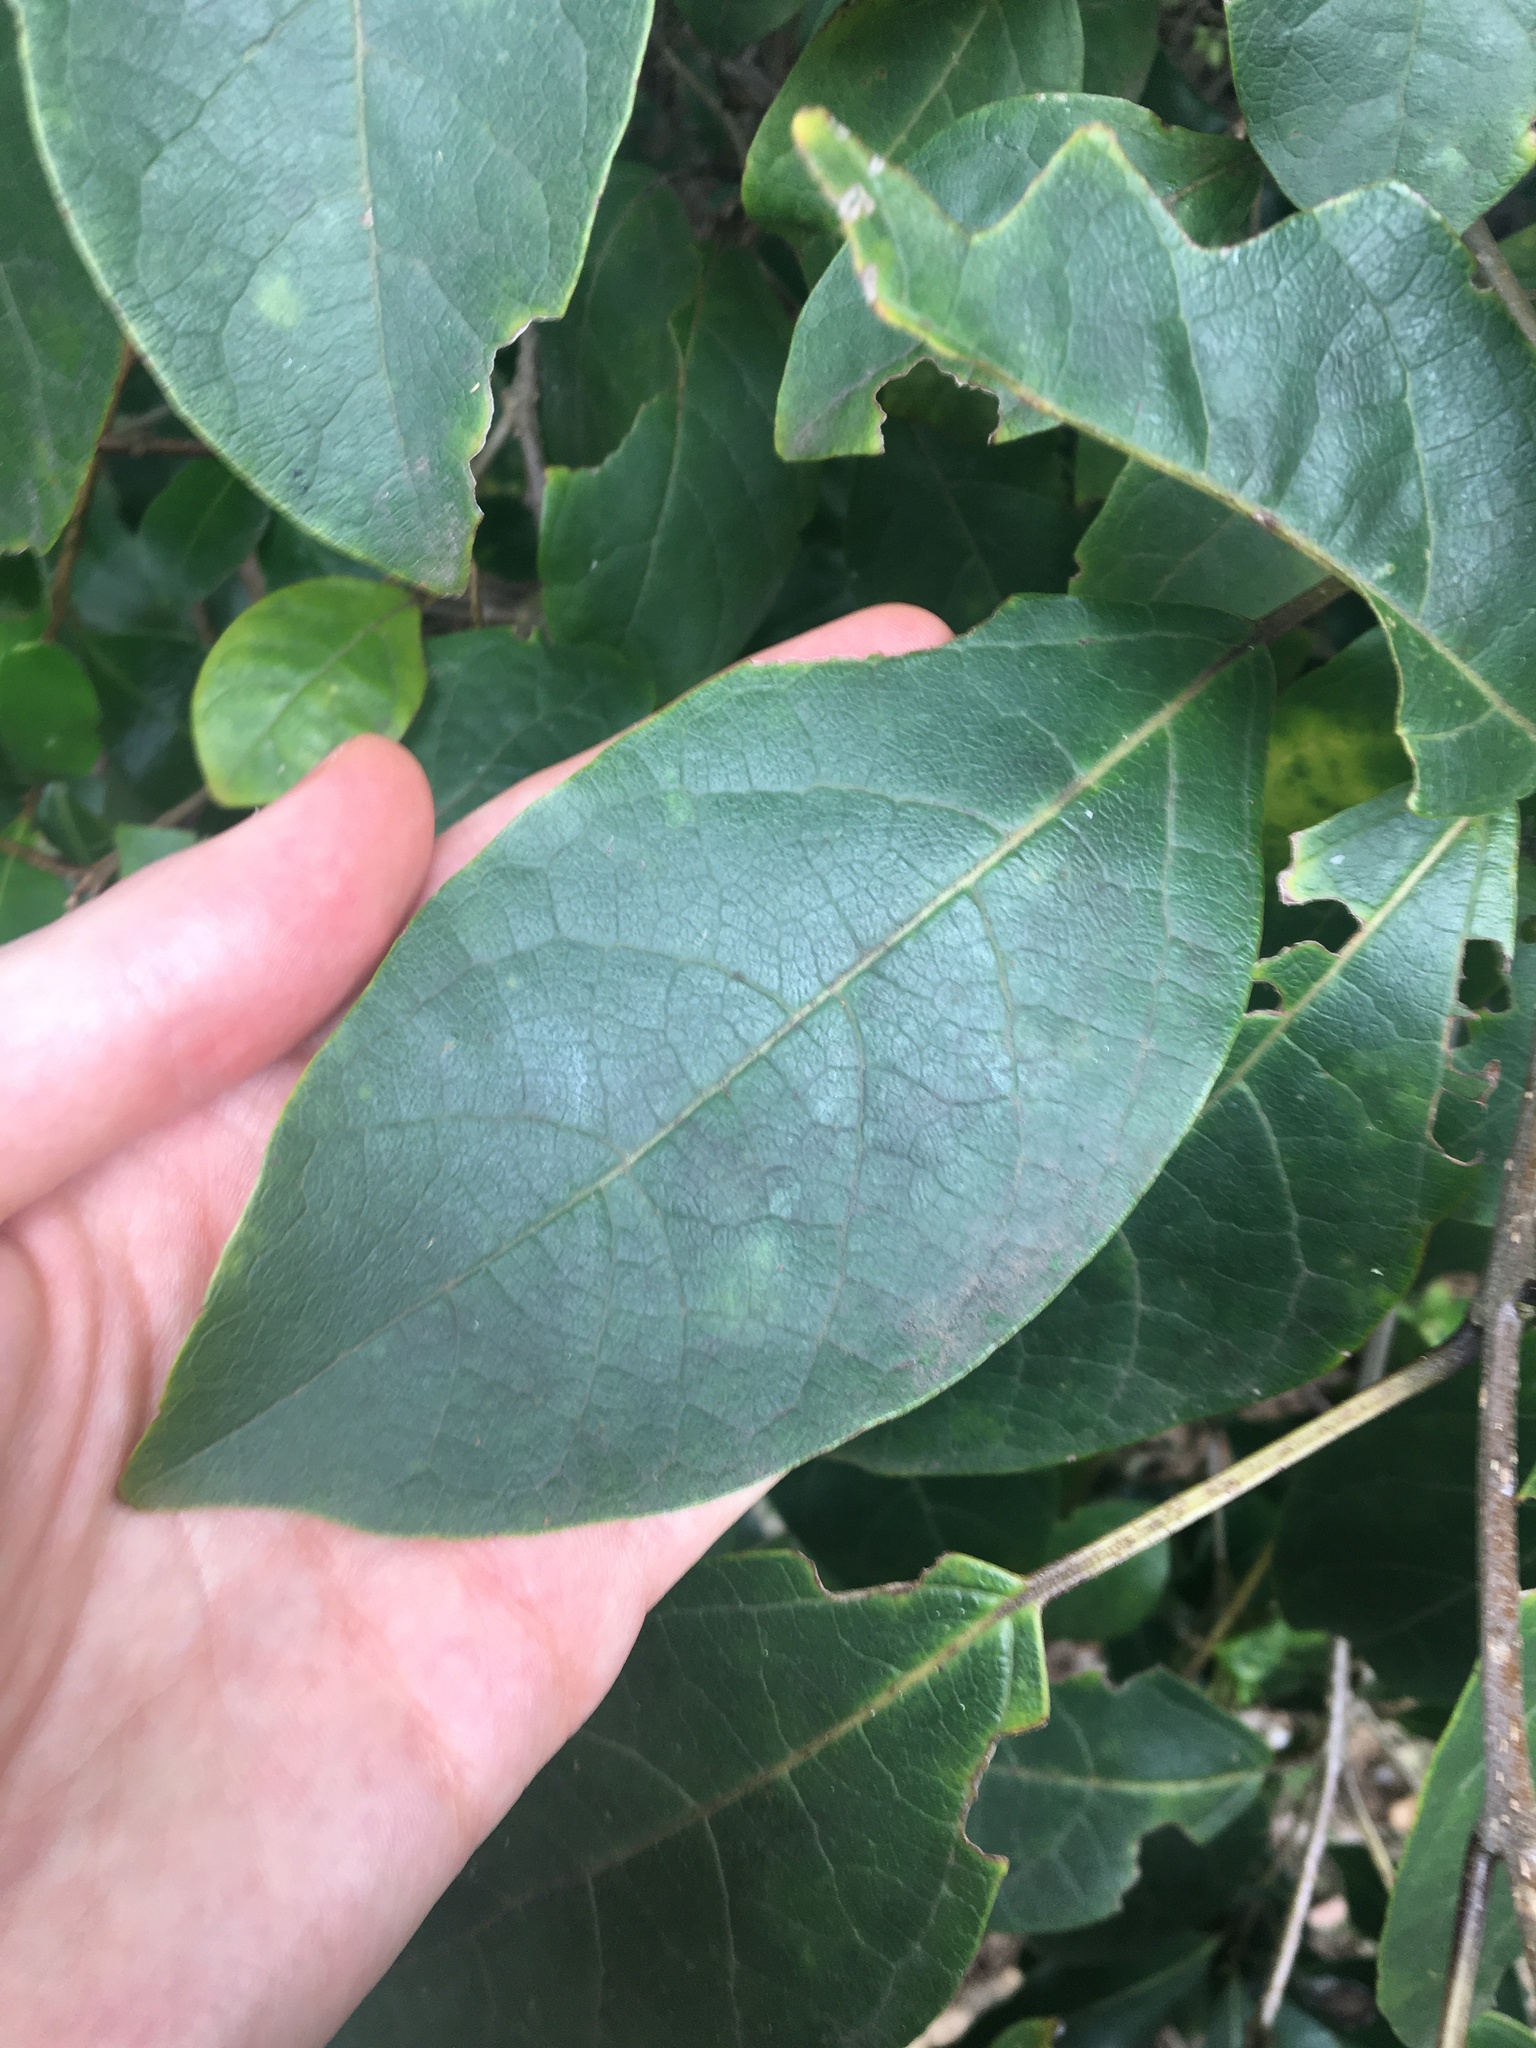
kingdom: Plantae
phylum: Tracheophyta
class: Magnoliopsida
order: Lamiales
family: Lamiaceae
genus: Clerodendrum
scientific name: Clerodendrum tomentosum
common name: Hairy clerodendrum
